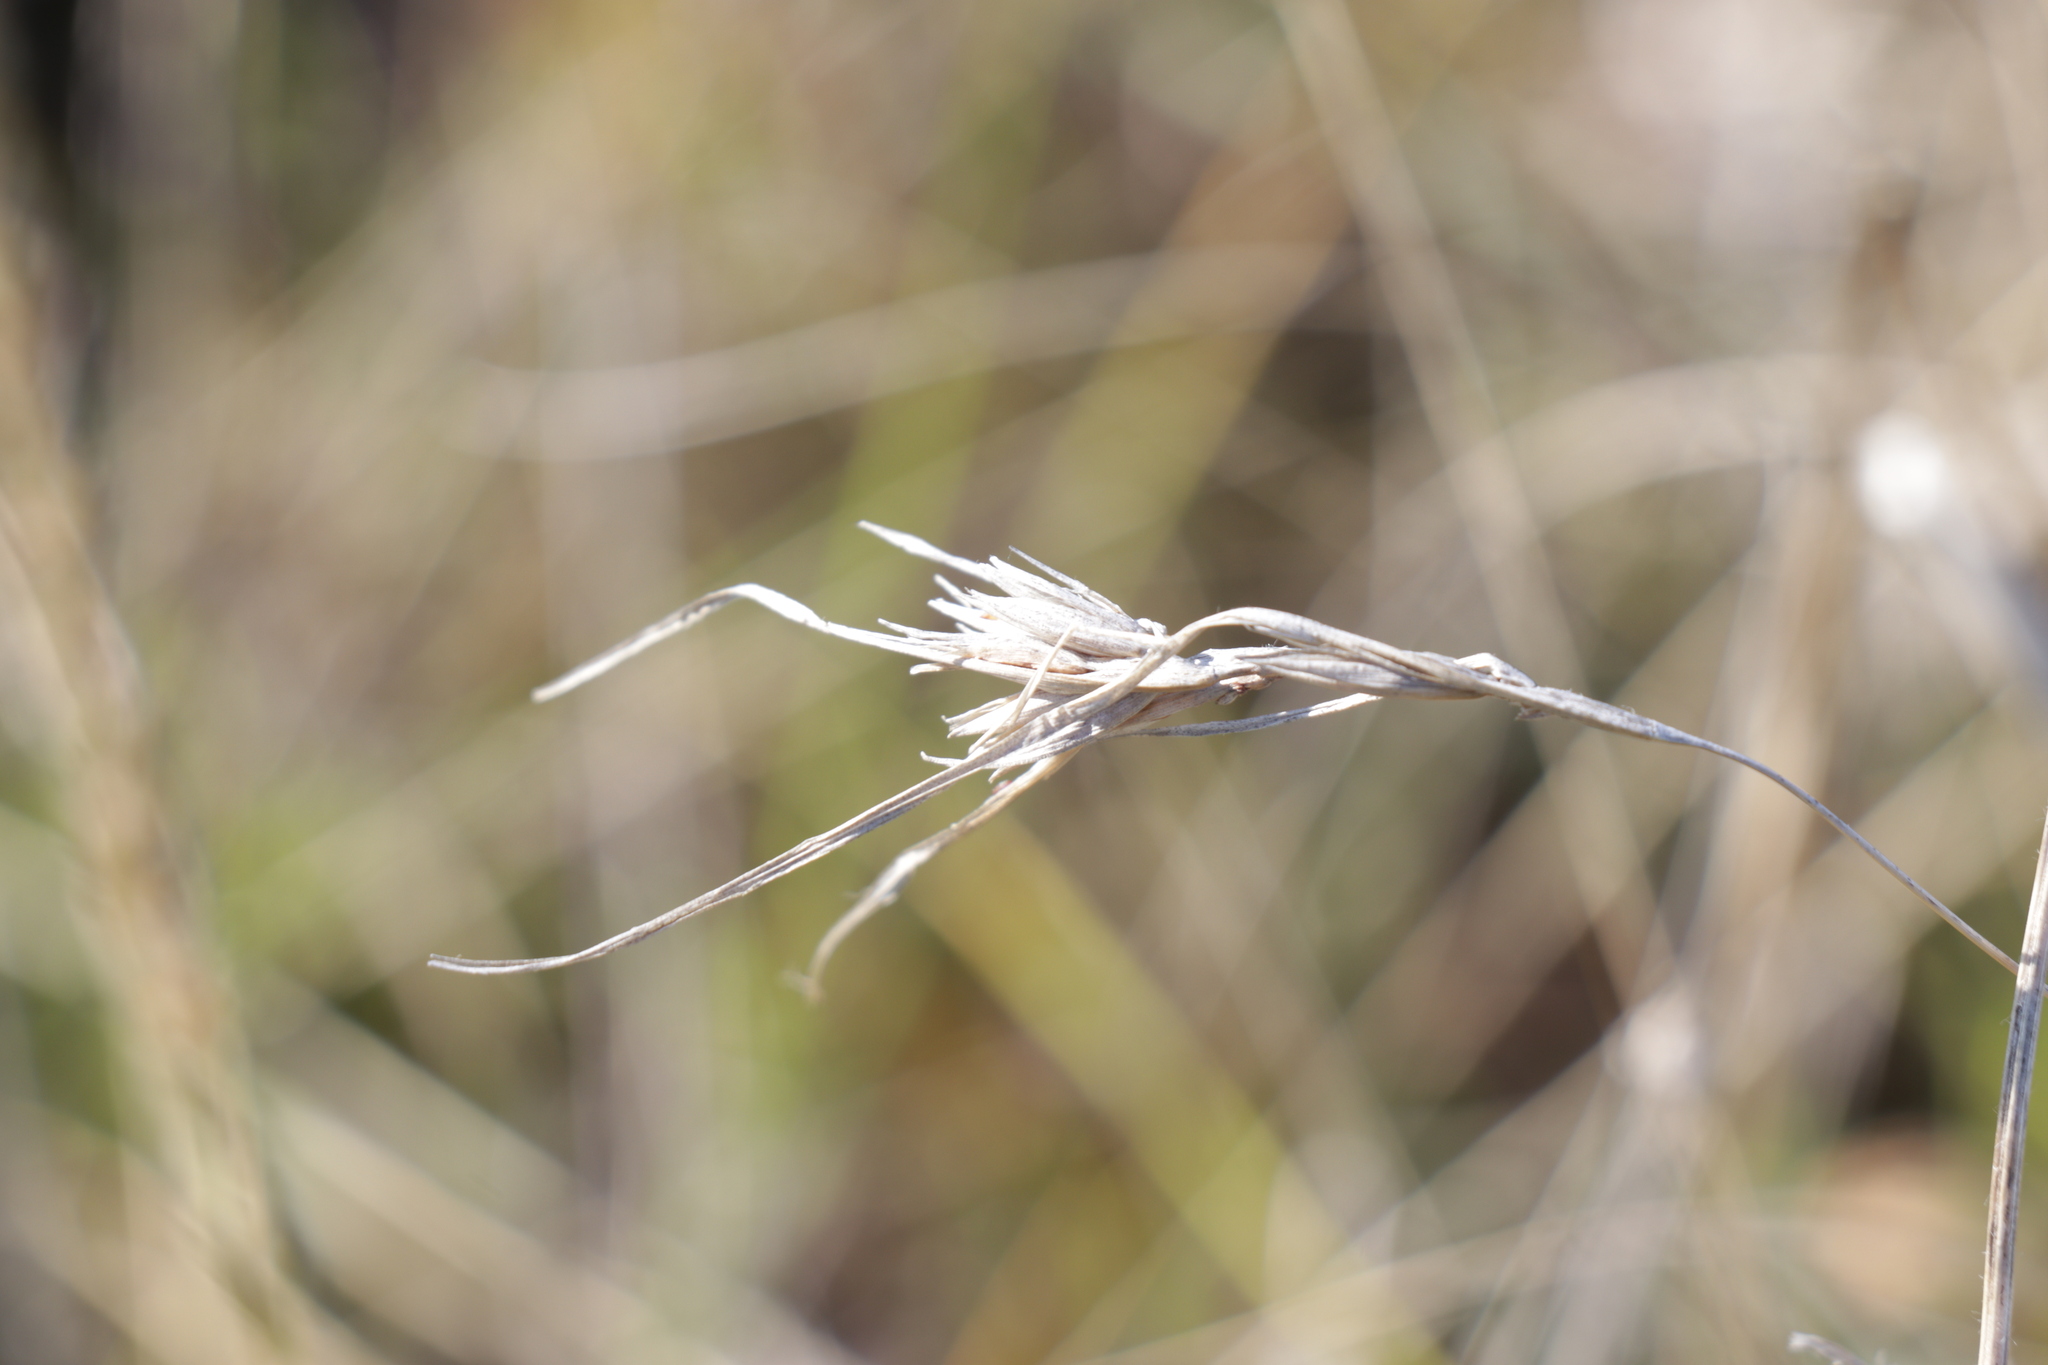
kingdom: Plantae
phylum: Tracheophyta
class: Liliopsida
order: Poales
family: Poaceae
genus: Themeda
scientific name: Themeda triandra
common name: Kangaroo grass
